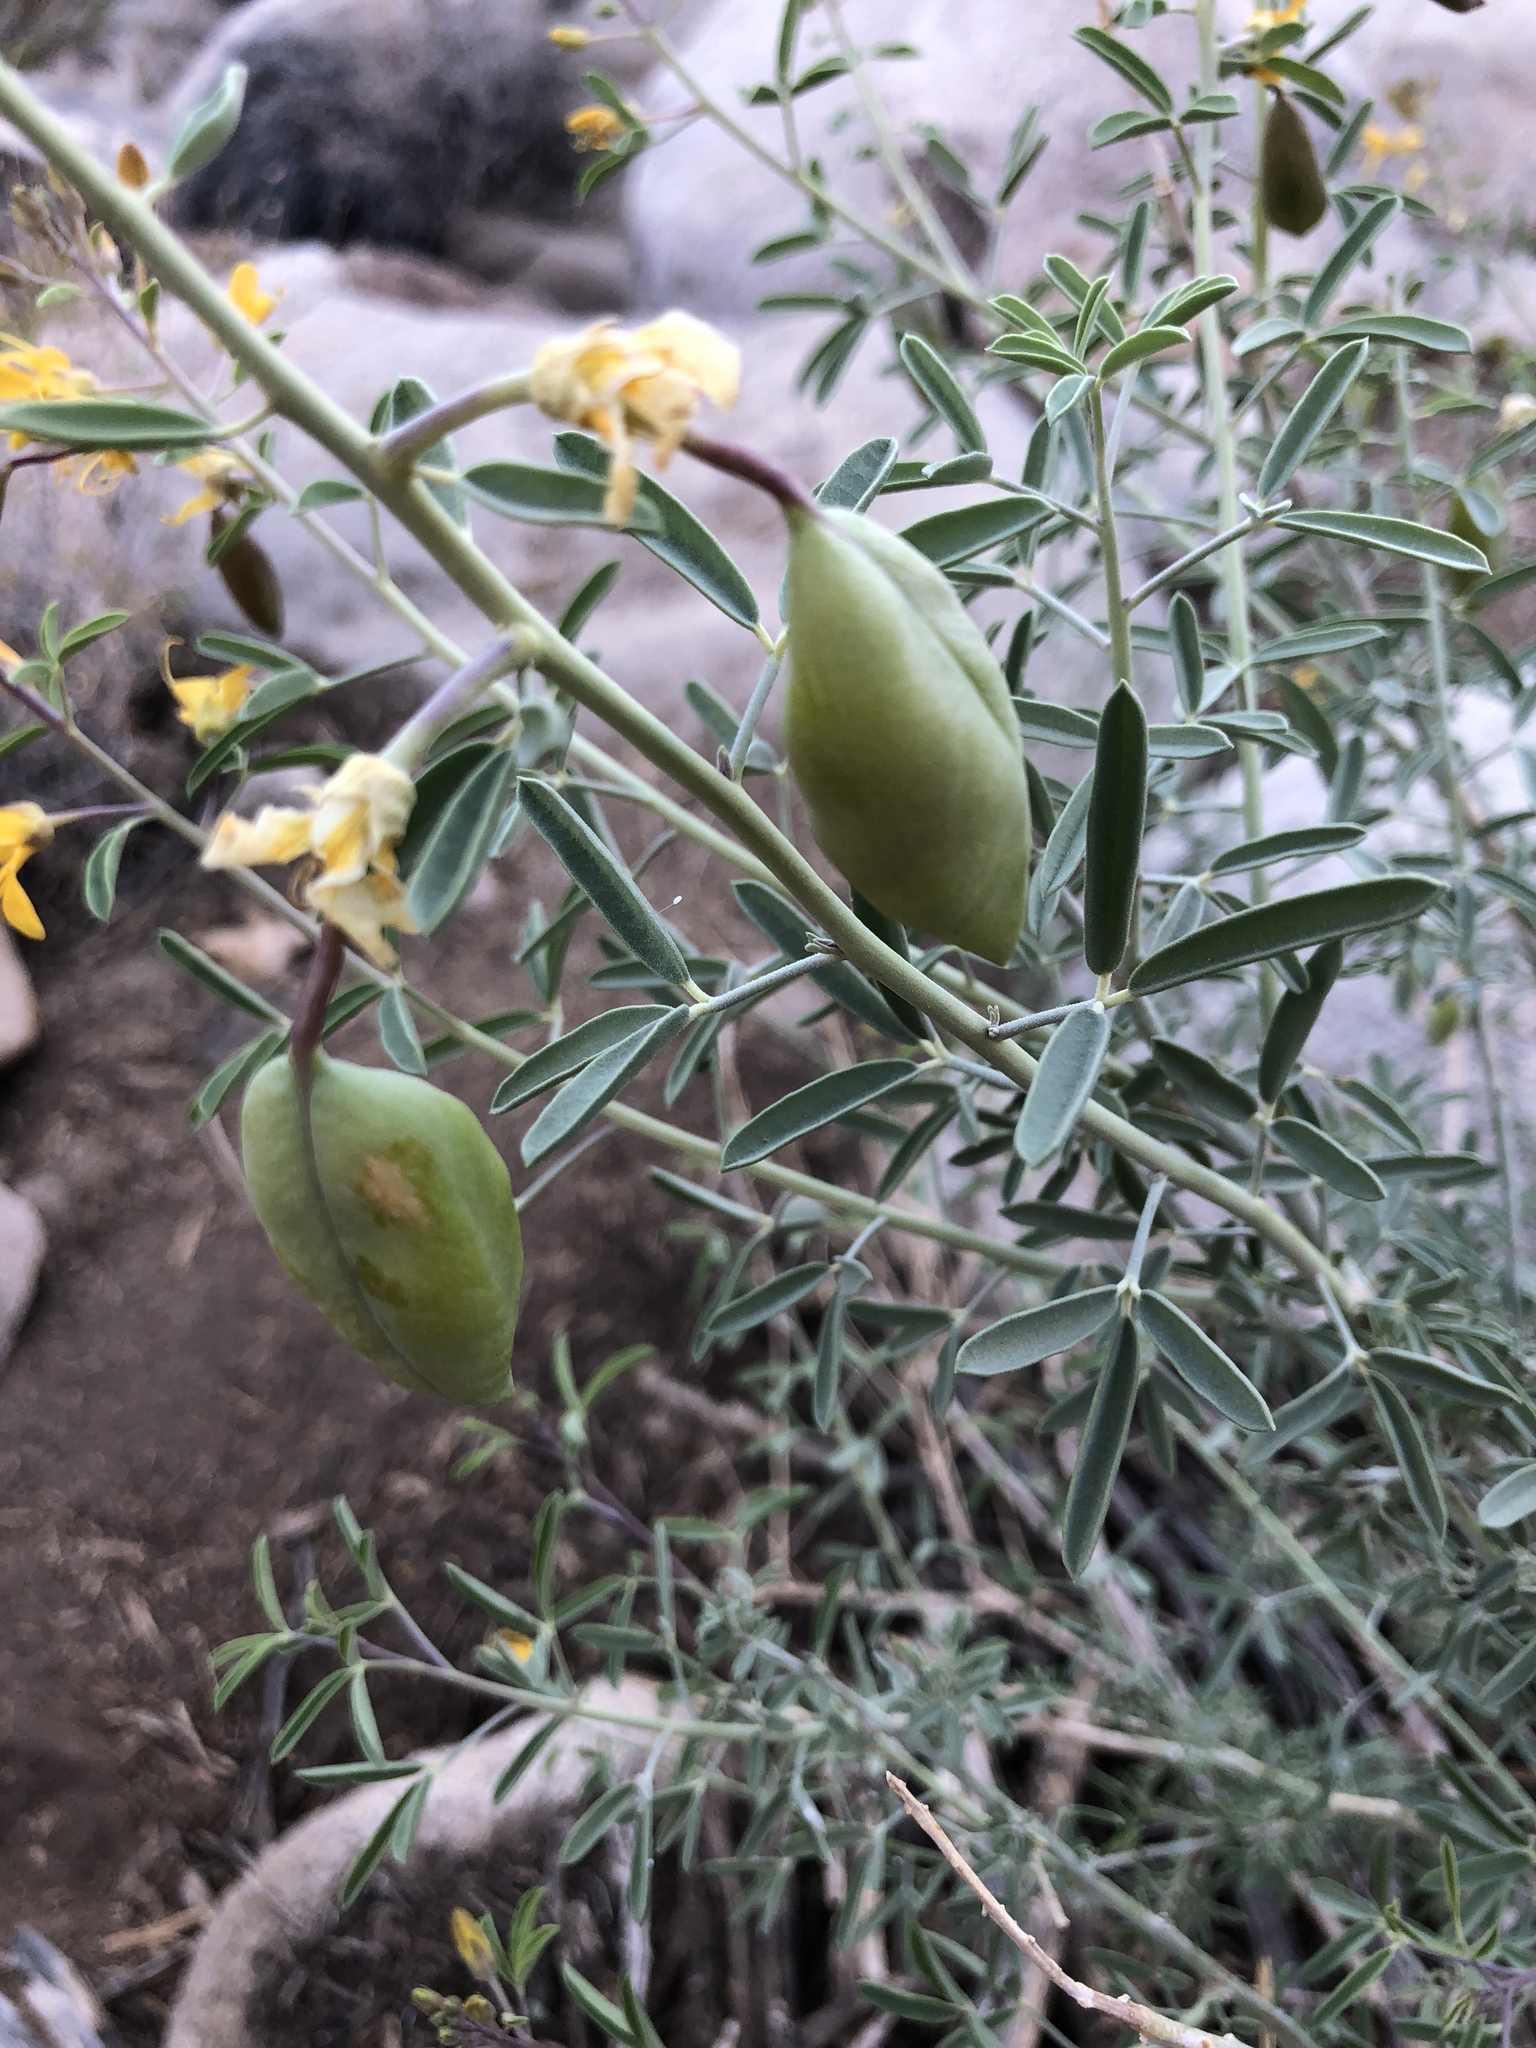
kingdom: Plantae
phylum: Tracheophyta
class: Magnoliopsida
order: Brassicales
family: Cleomaceae
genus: Cleomella
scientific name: Cleomella arborea
